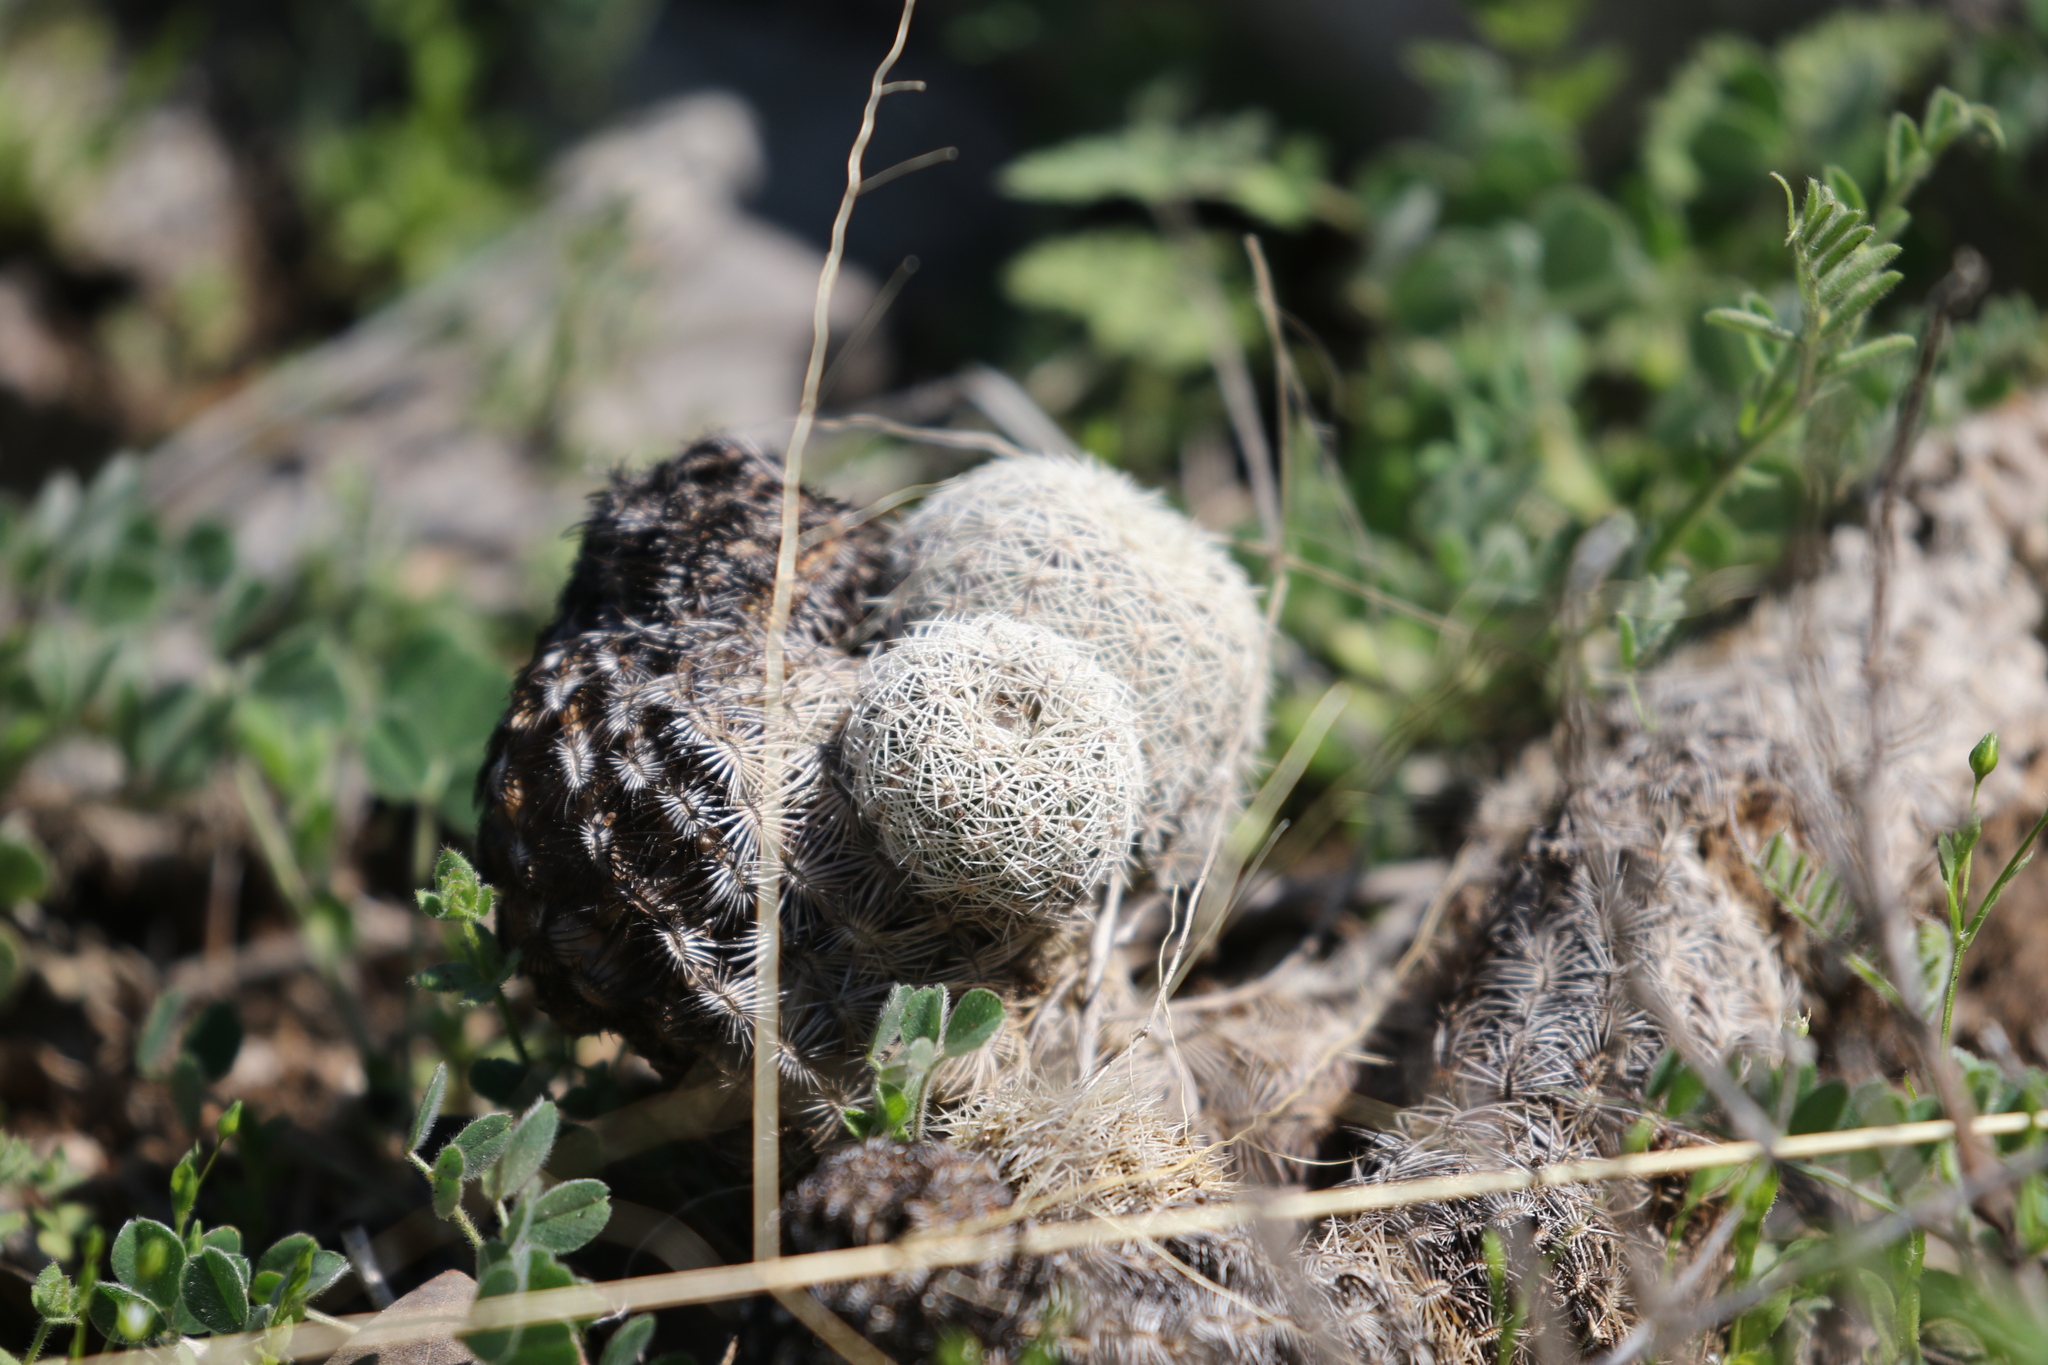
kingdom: Plantae
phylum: Tracheophyta
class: Magnoliopsida
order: Caryophyllales
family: Cactaceae
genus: Echinocereus
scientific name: Echinocereus reichenbachii
